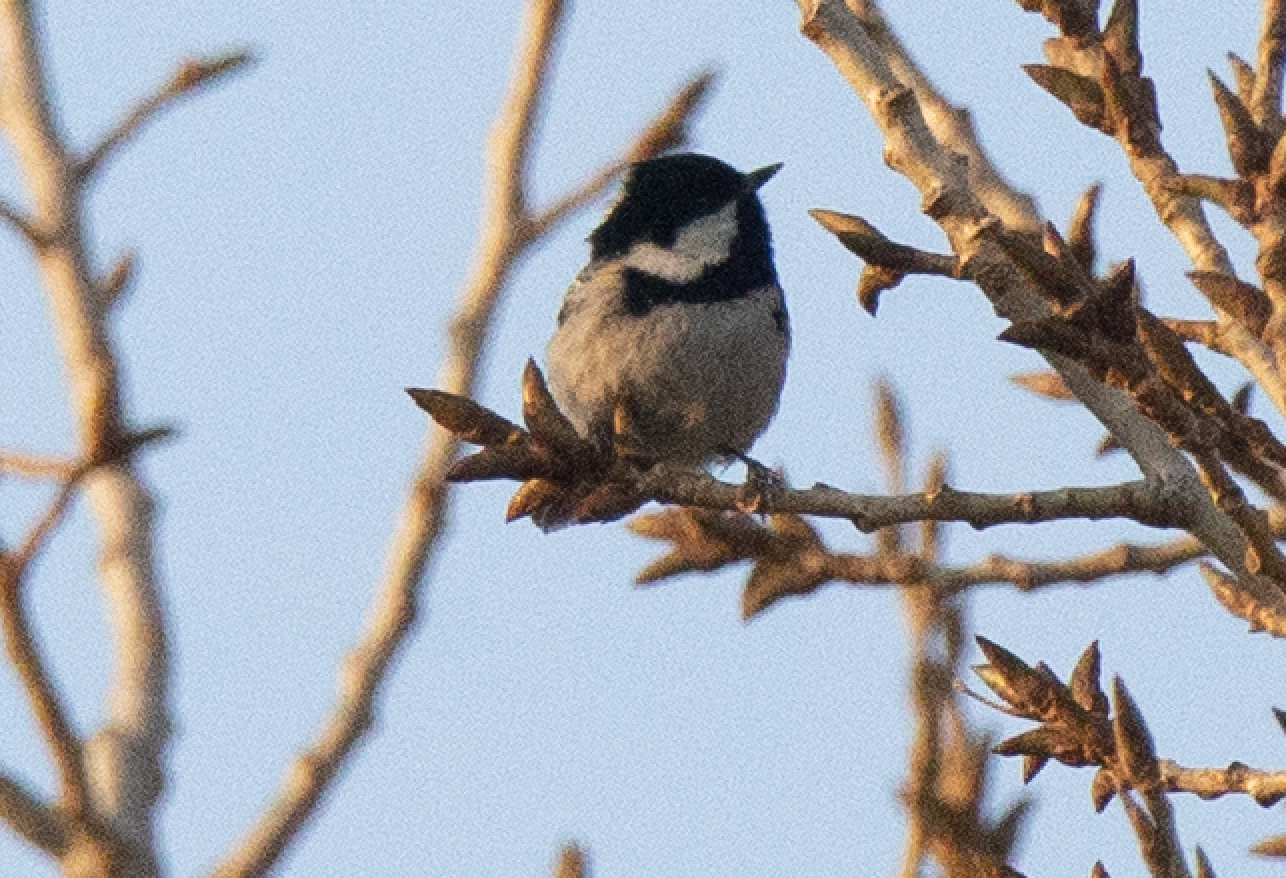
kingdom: Animalia
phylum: Chordata
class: Aves
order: Passeriformes
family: Paridae
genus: Periparus
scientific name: Periparus ater
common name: Coal tit
